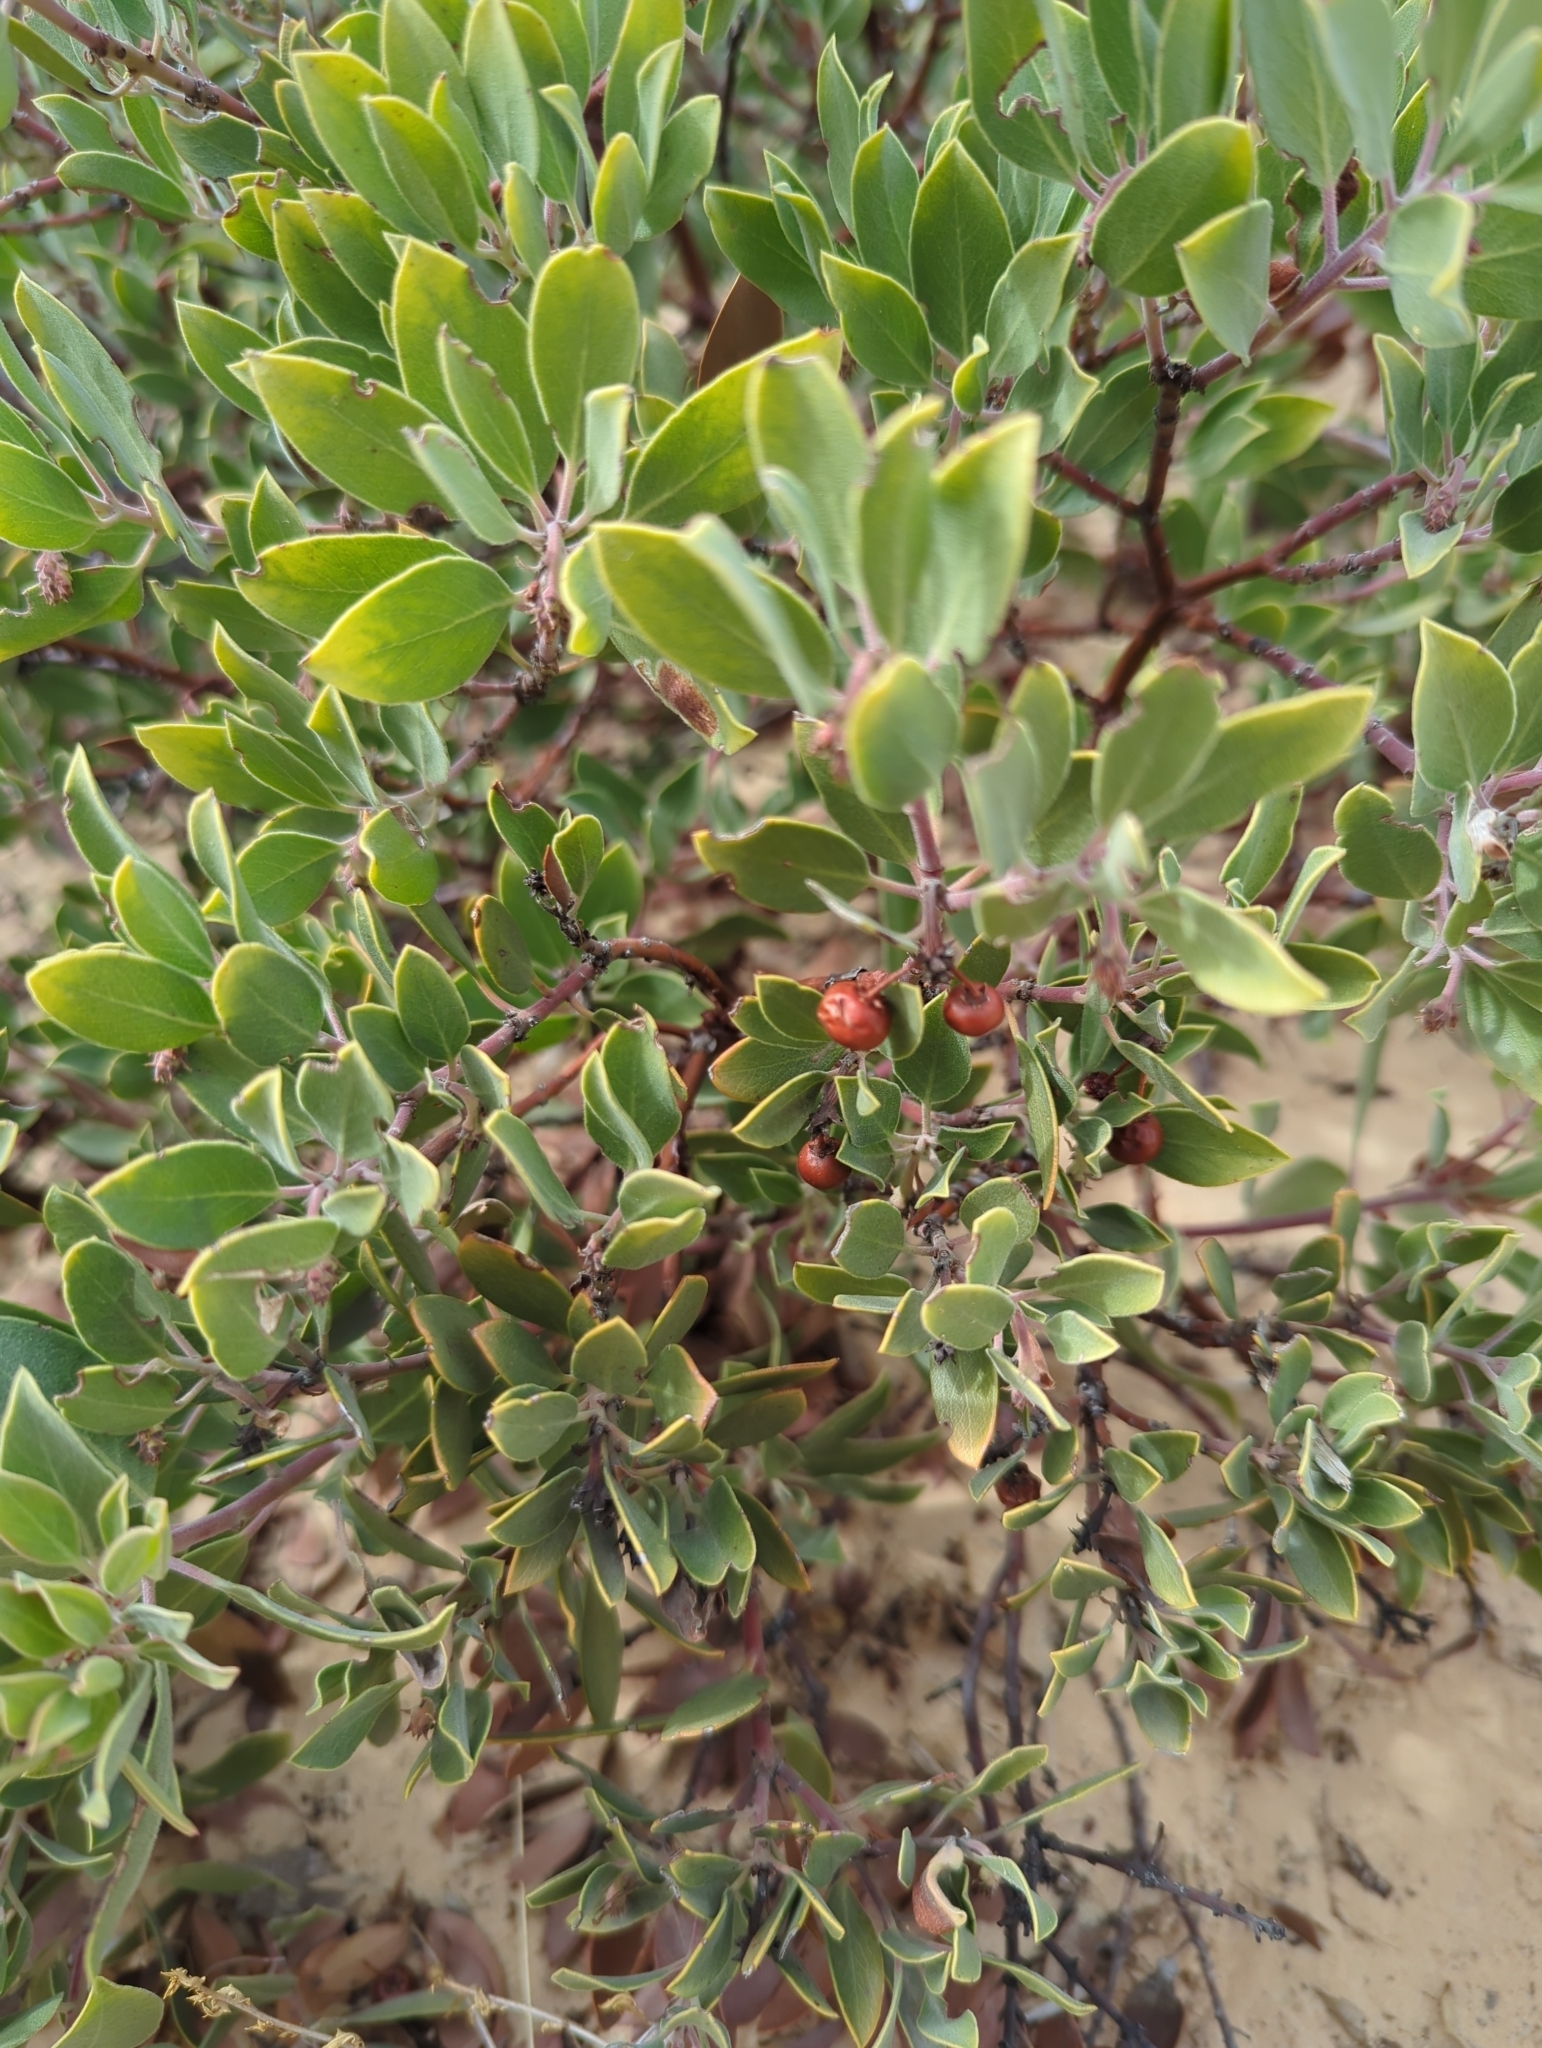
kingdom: Plantae
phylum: Tracheophyta
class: Magnoliopsida
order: Ericales
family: Ericaceae
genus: Arctostaphylos
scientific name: Arctostaphylos pungens
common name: Mexican manzanita
